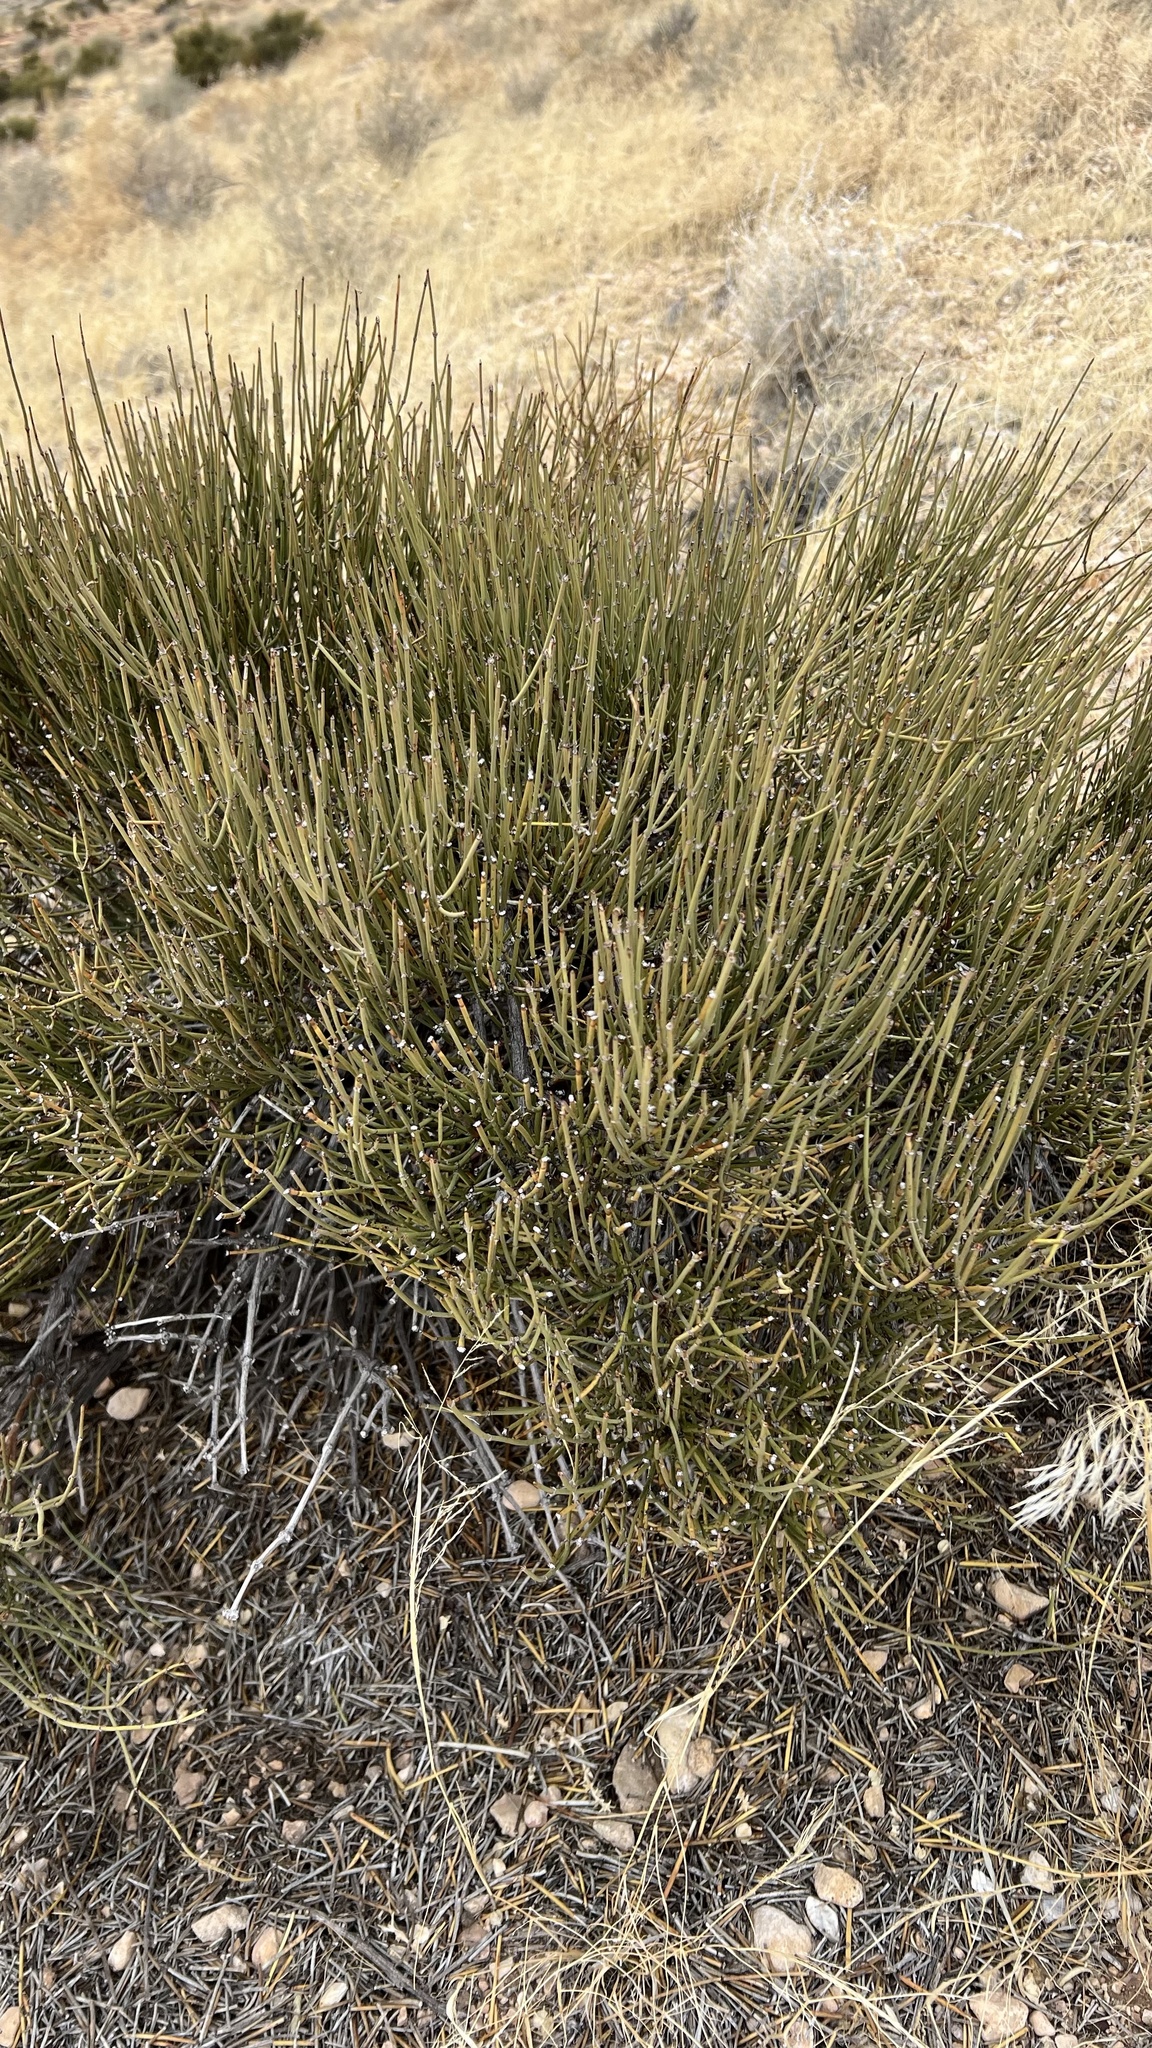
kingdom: Plantae
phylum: Tracheophyta
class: Gnetopsida
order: Ephedrales
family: Ephedraceae
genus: Ephedra
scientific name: Ephedra viridis
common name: Green ephedra
